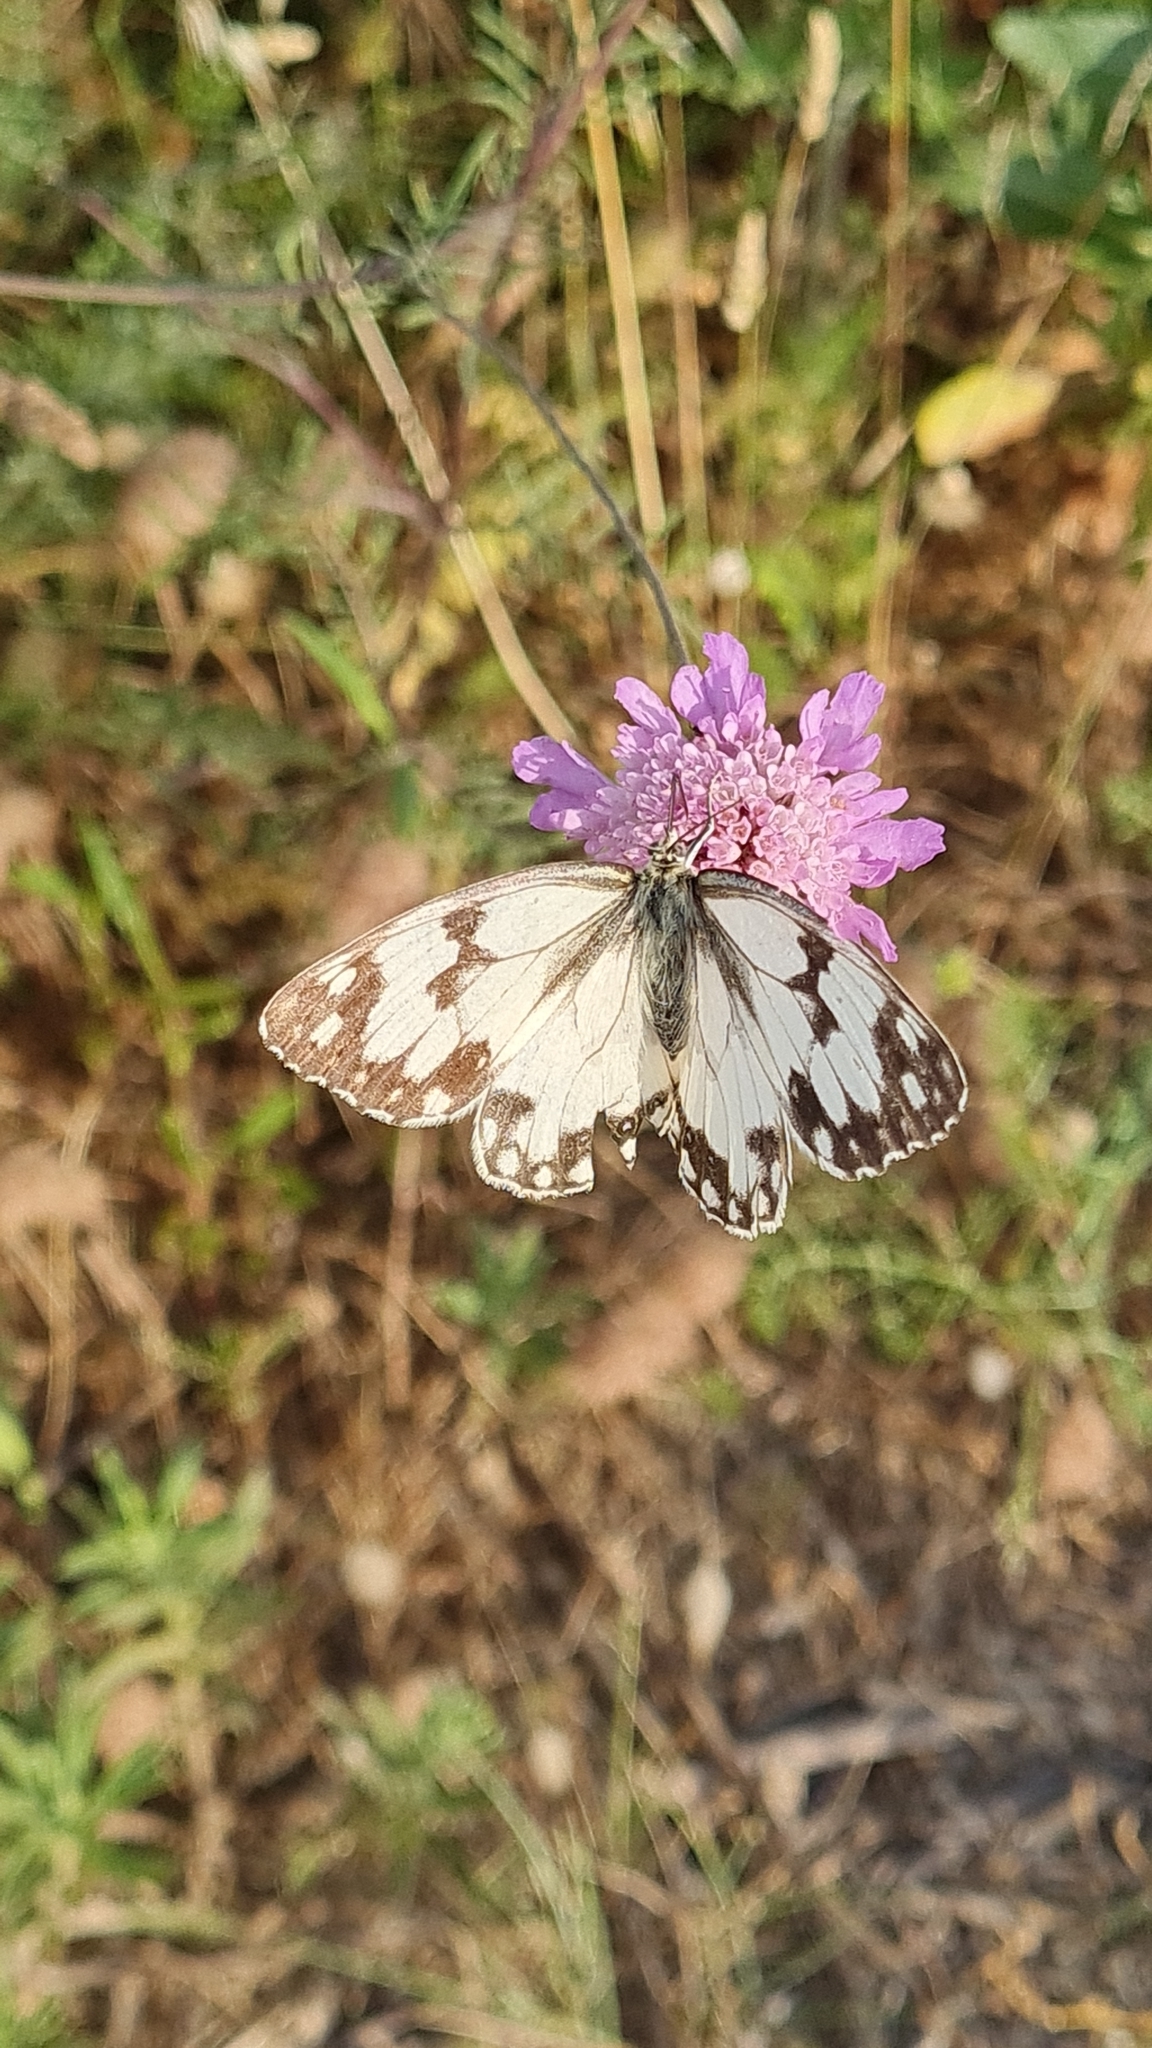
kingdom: Animalia
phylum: Arthropoda
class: Insecta
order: Lepidoptera
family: Nymphalidae
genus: Melanargia
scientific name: Melanargia lachesis
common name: Iberian marbled white
